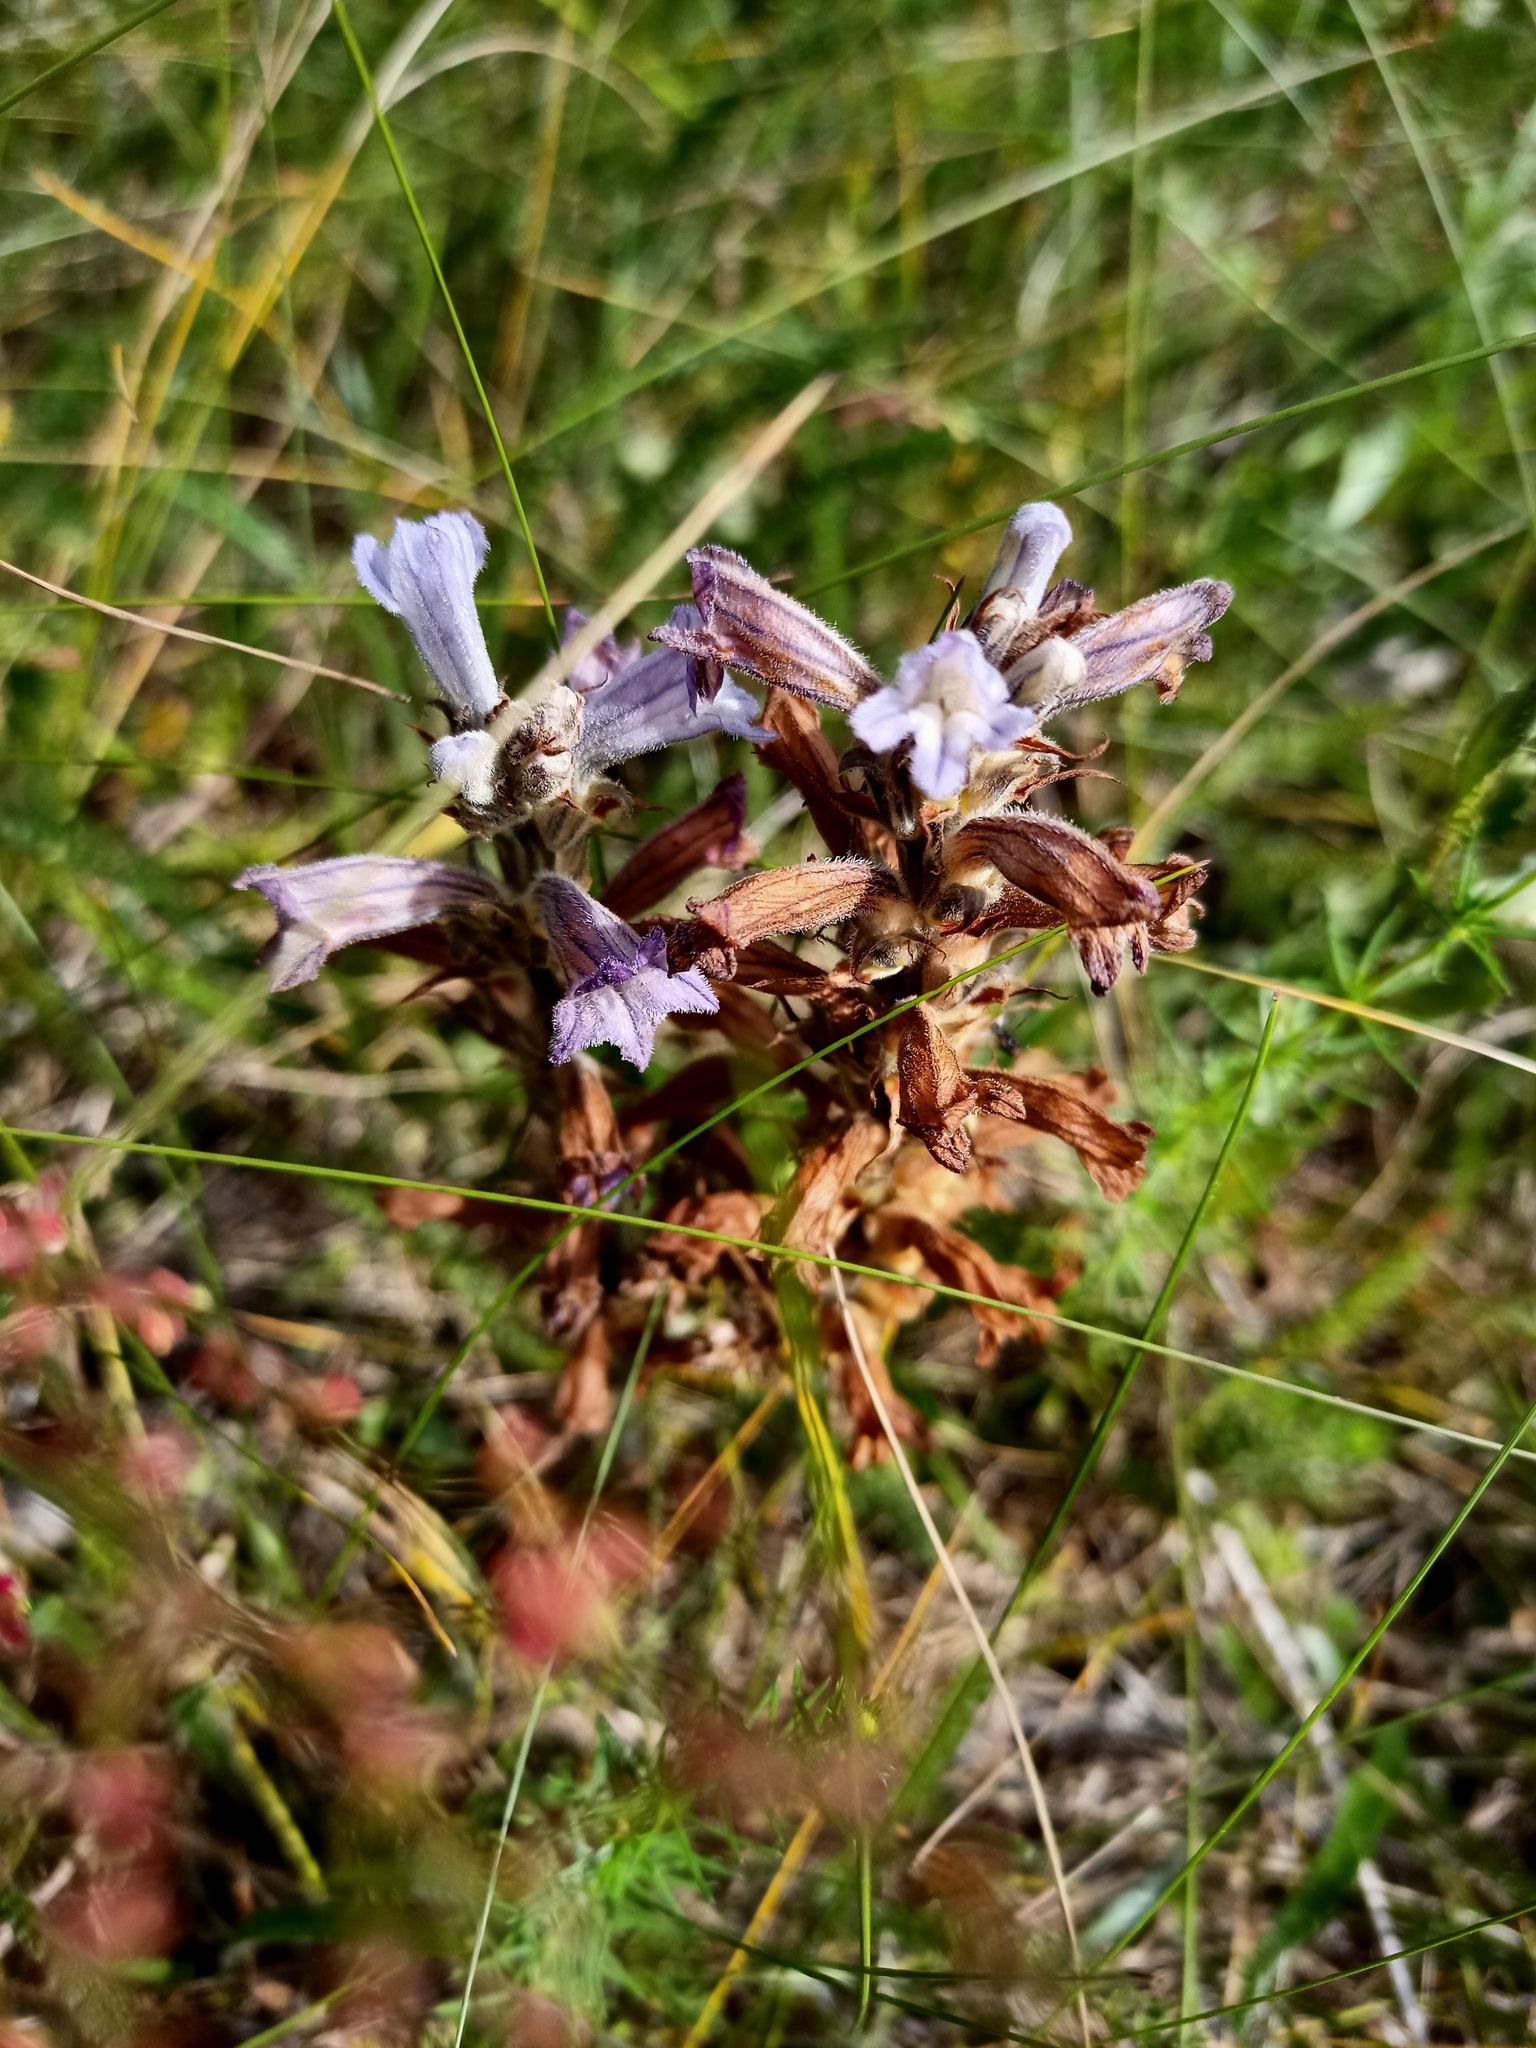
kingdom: Plantae
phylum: Tracheophyta
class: Magnoliopsida
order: Lamiales
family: Orobanchaceae
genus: Phelipanche
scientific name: Phelipanche purpurea
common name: Purple broomrape
